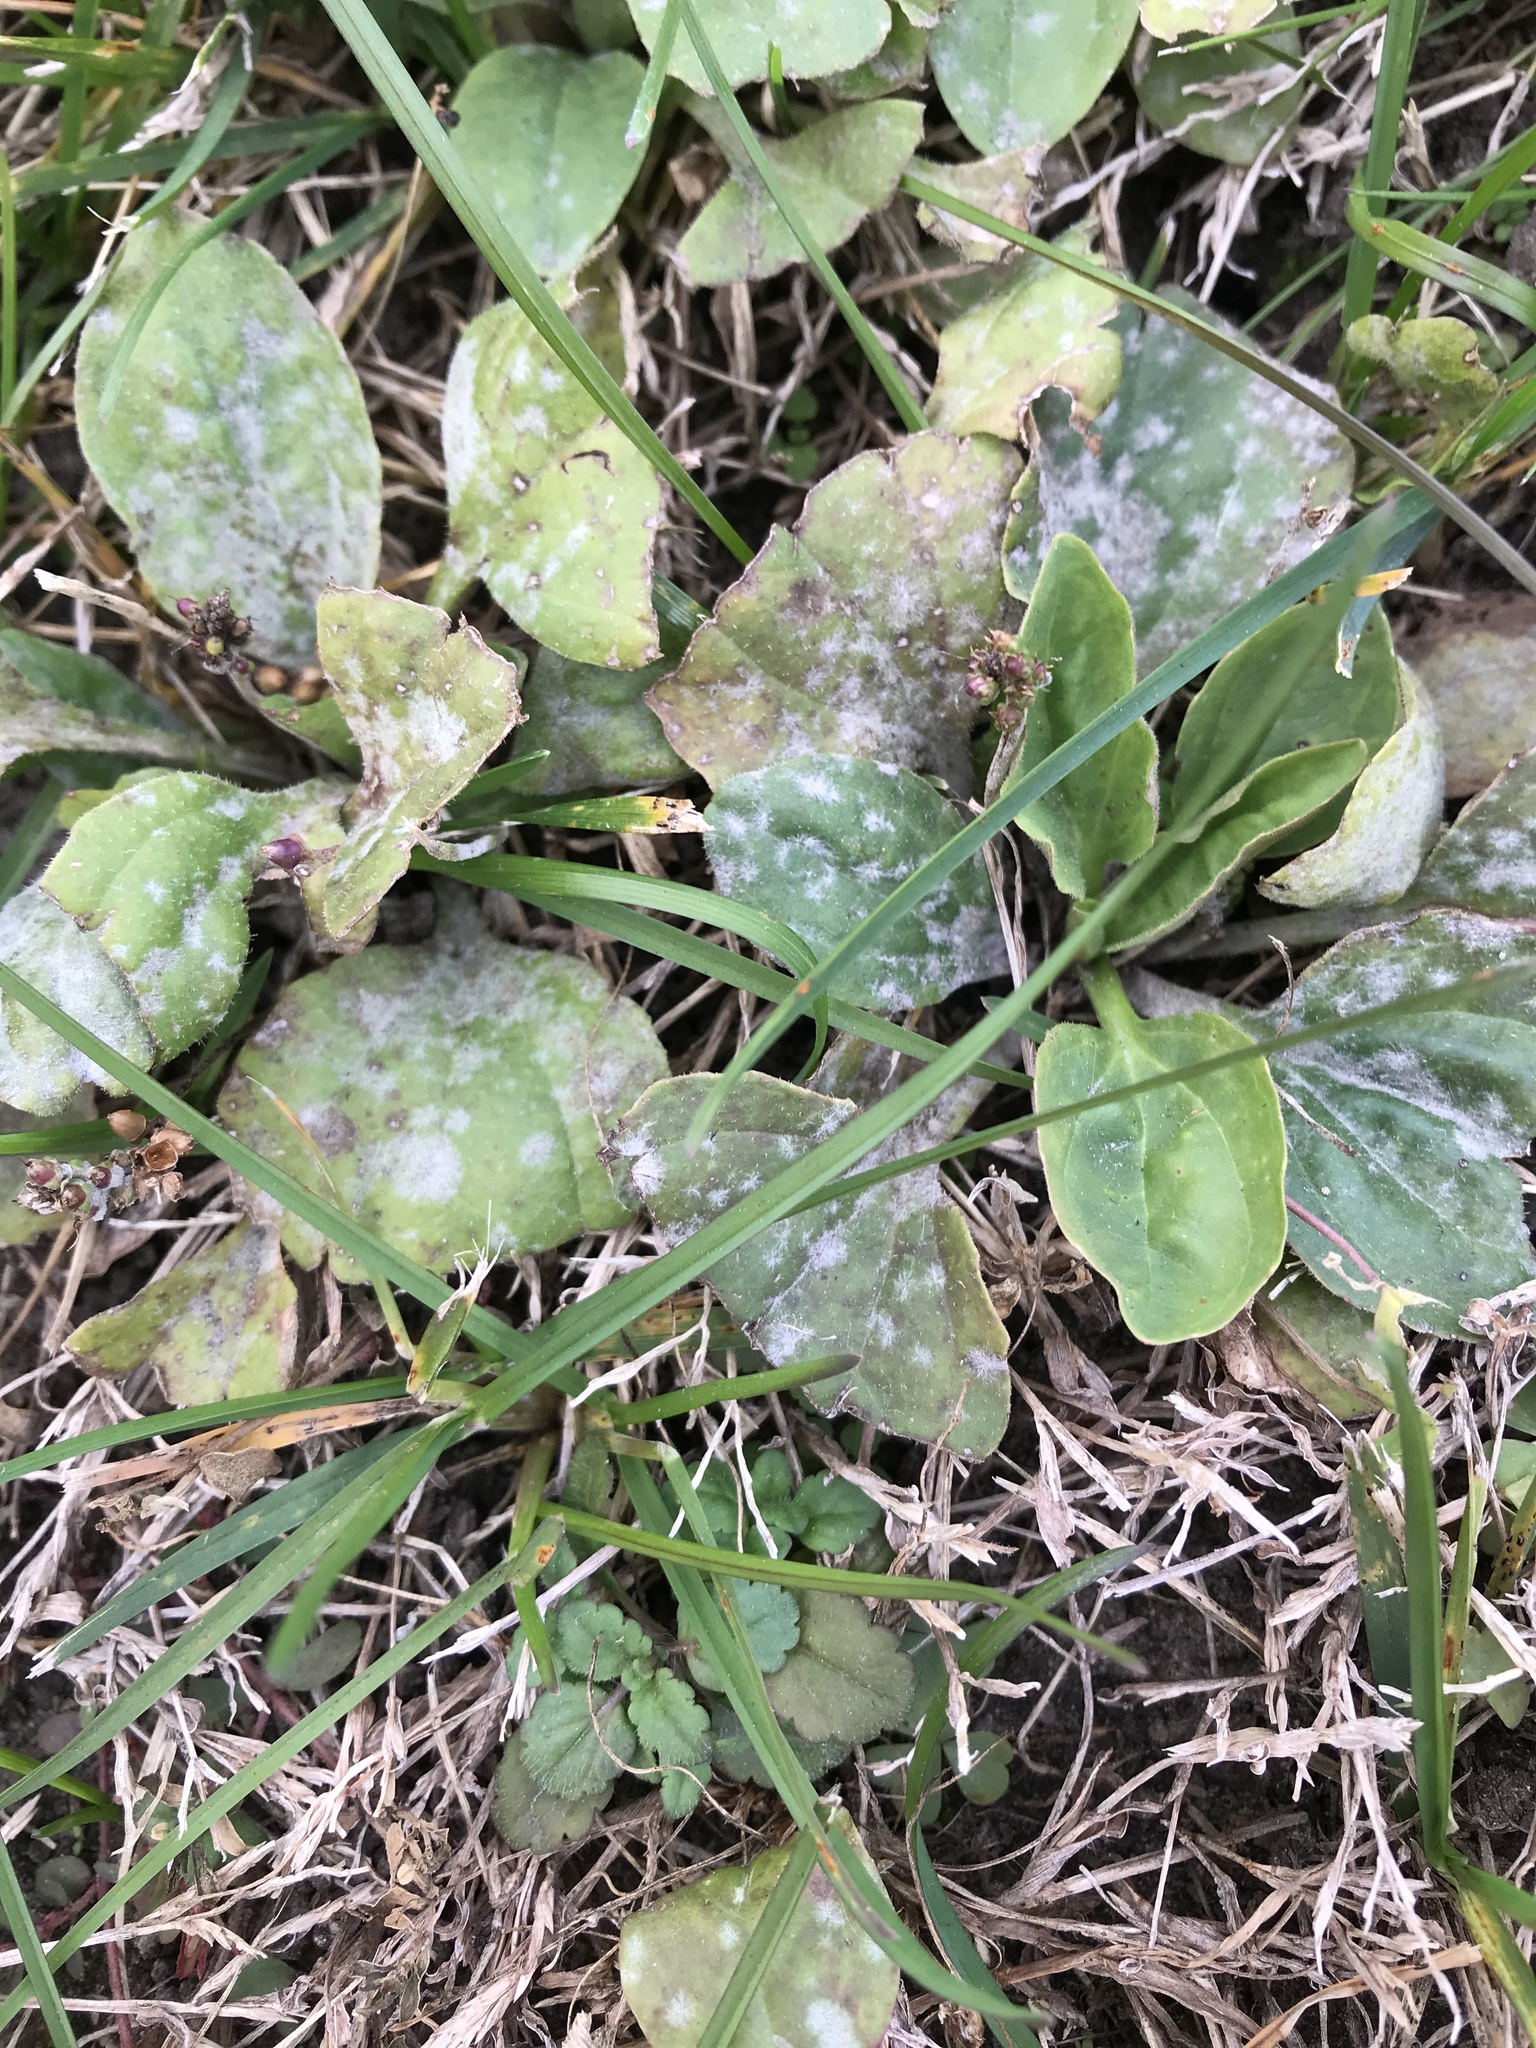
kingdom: Plantae
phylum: Tracheophyta
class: Magnoliopsida
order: Lamiales
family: Plantaginaceae
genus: Plantago
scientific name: Plantago major
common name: Common plantain
